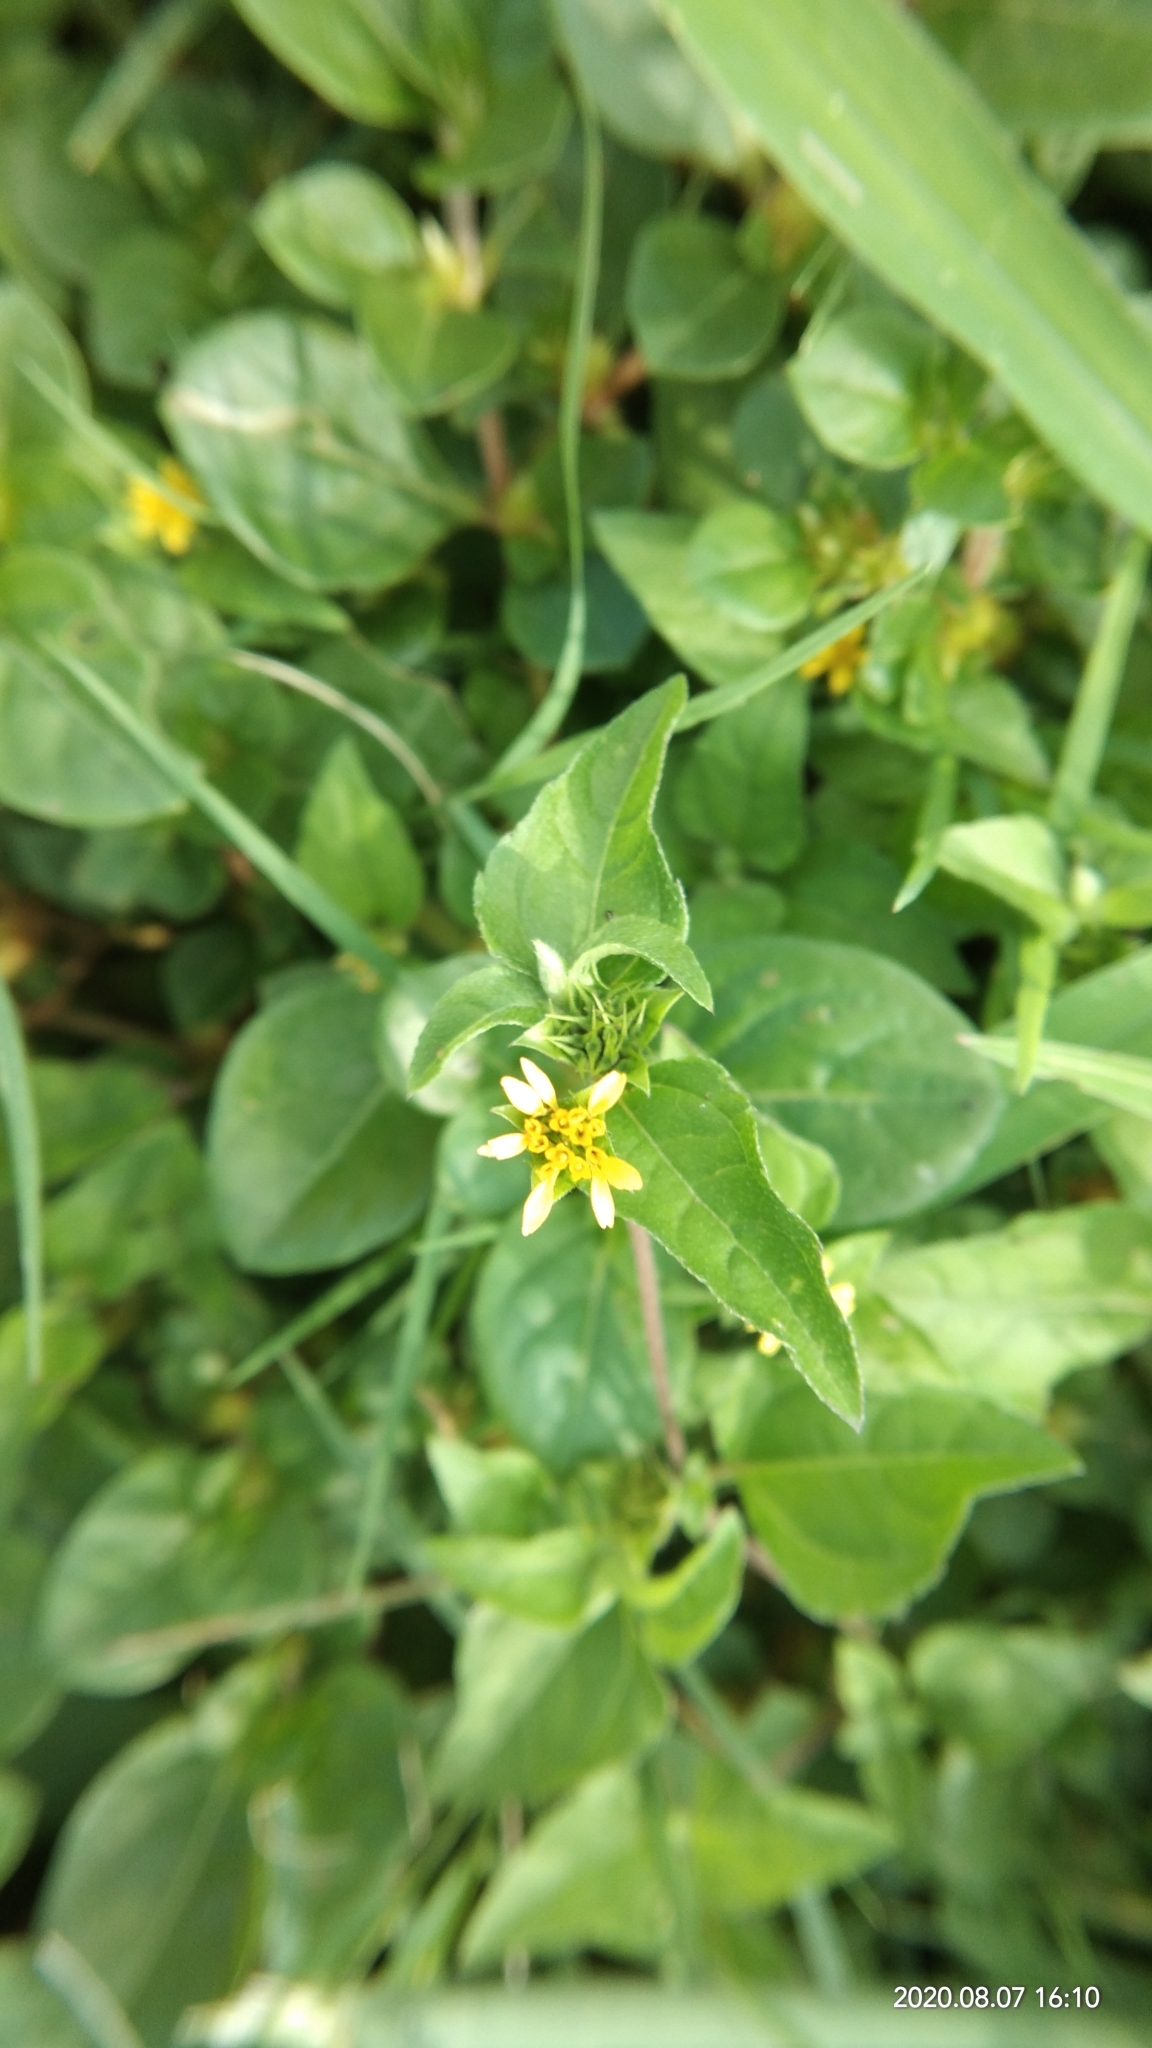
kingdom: Plantae
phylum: Tracheophyta
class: Magnoliopsida
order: Asterales
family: Asteraceae
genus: Calyptocarpus
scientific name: Calyptocarpus vialis
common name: Straggler daisy
